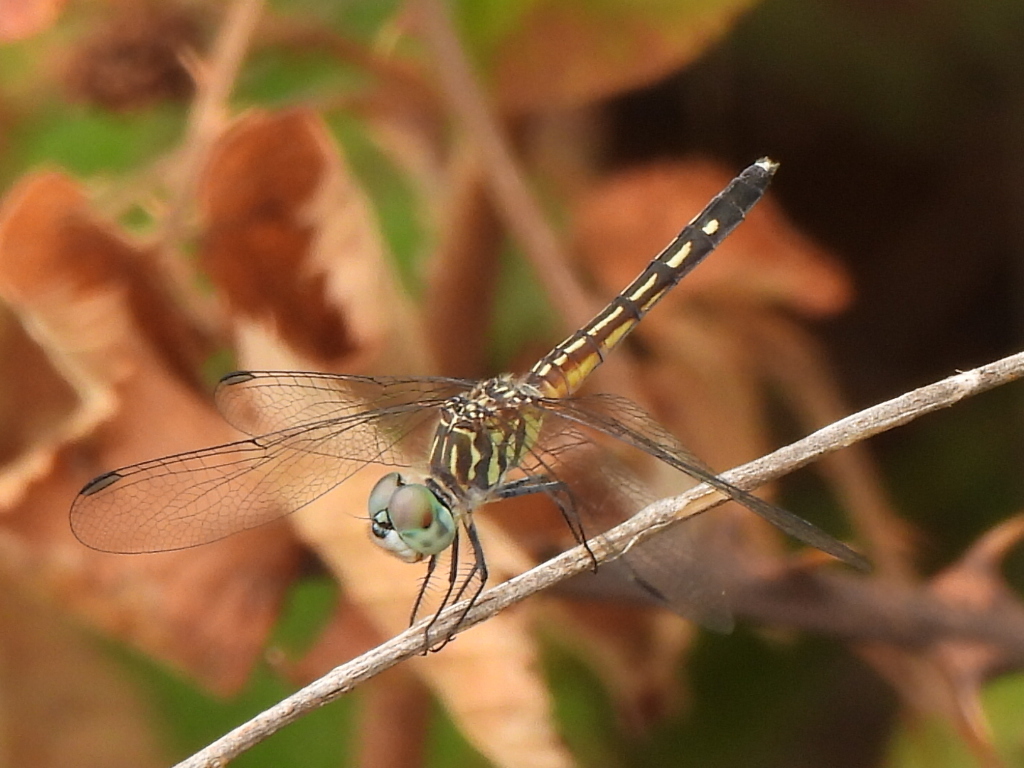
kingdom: Animalia
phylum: Arthropoda
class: Insecta
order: Odonata
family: Libellulidae
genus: Pachydiplax
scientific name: Pachydiplax longipennis
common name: Blue dasher
